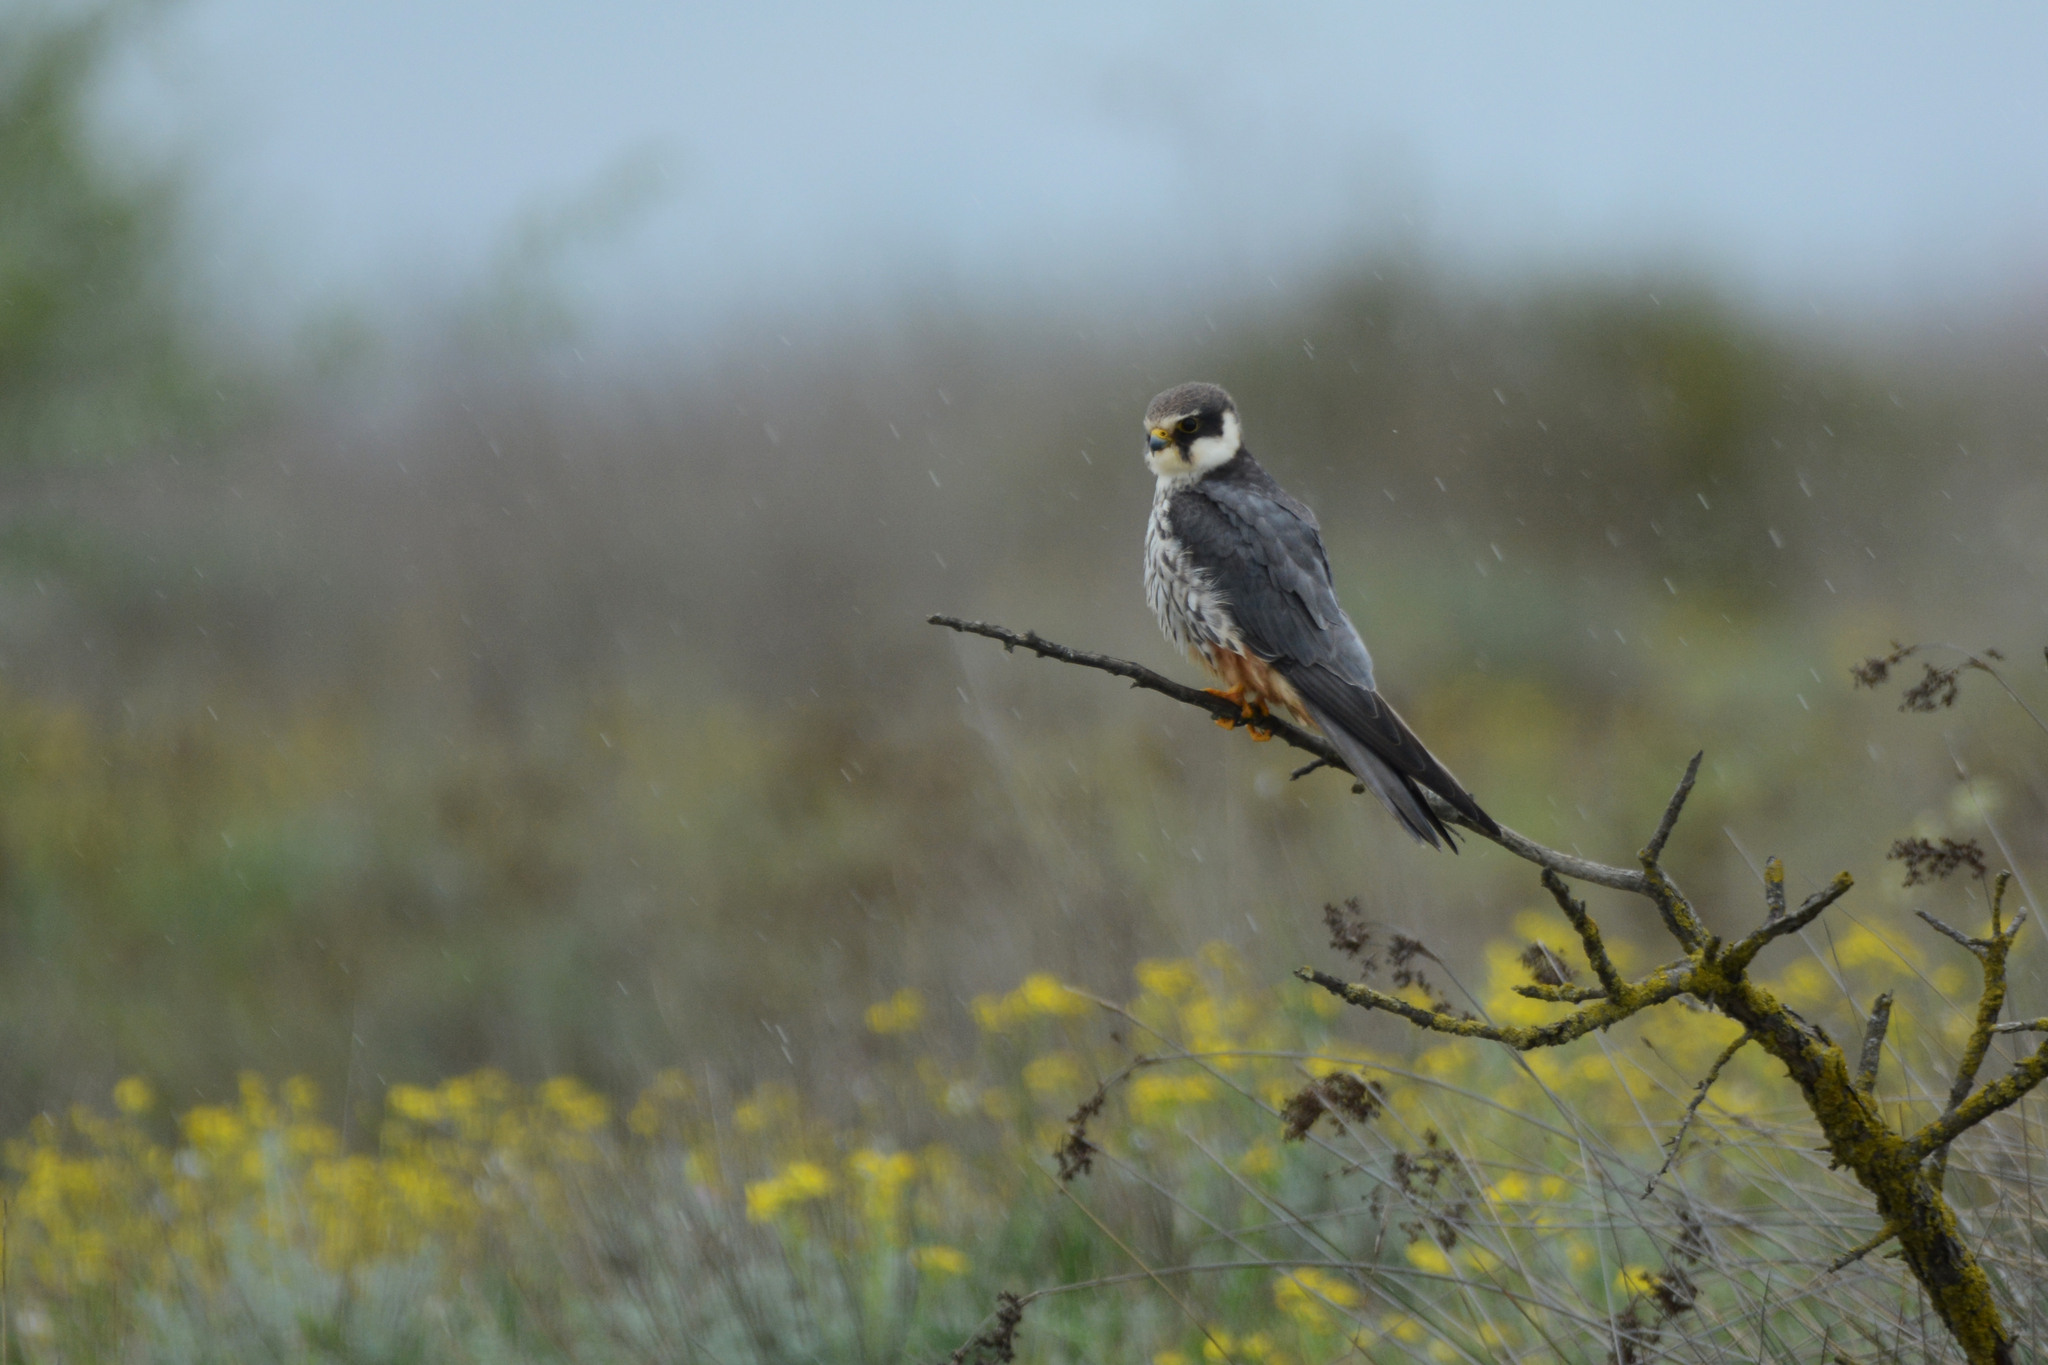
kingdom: Animalia
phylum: Chordata
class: Aves
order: Falconiformes
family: Falconidae
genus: Falco
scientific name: Falco subbuteo
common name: Eurasian hobby
